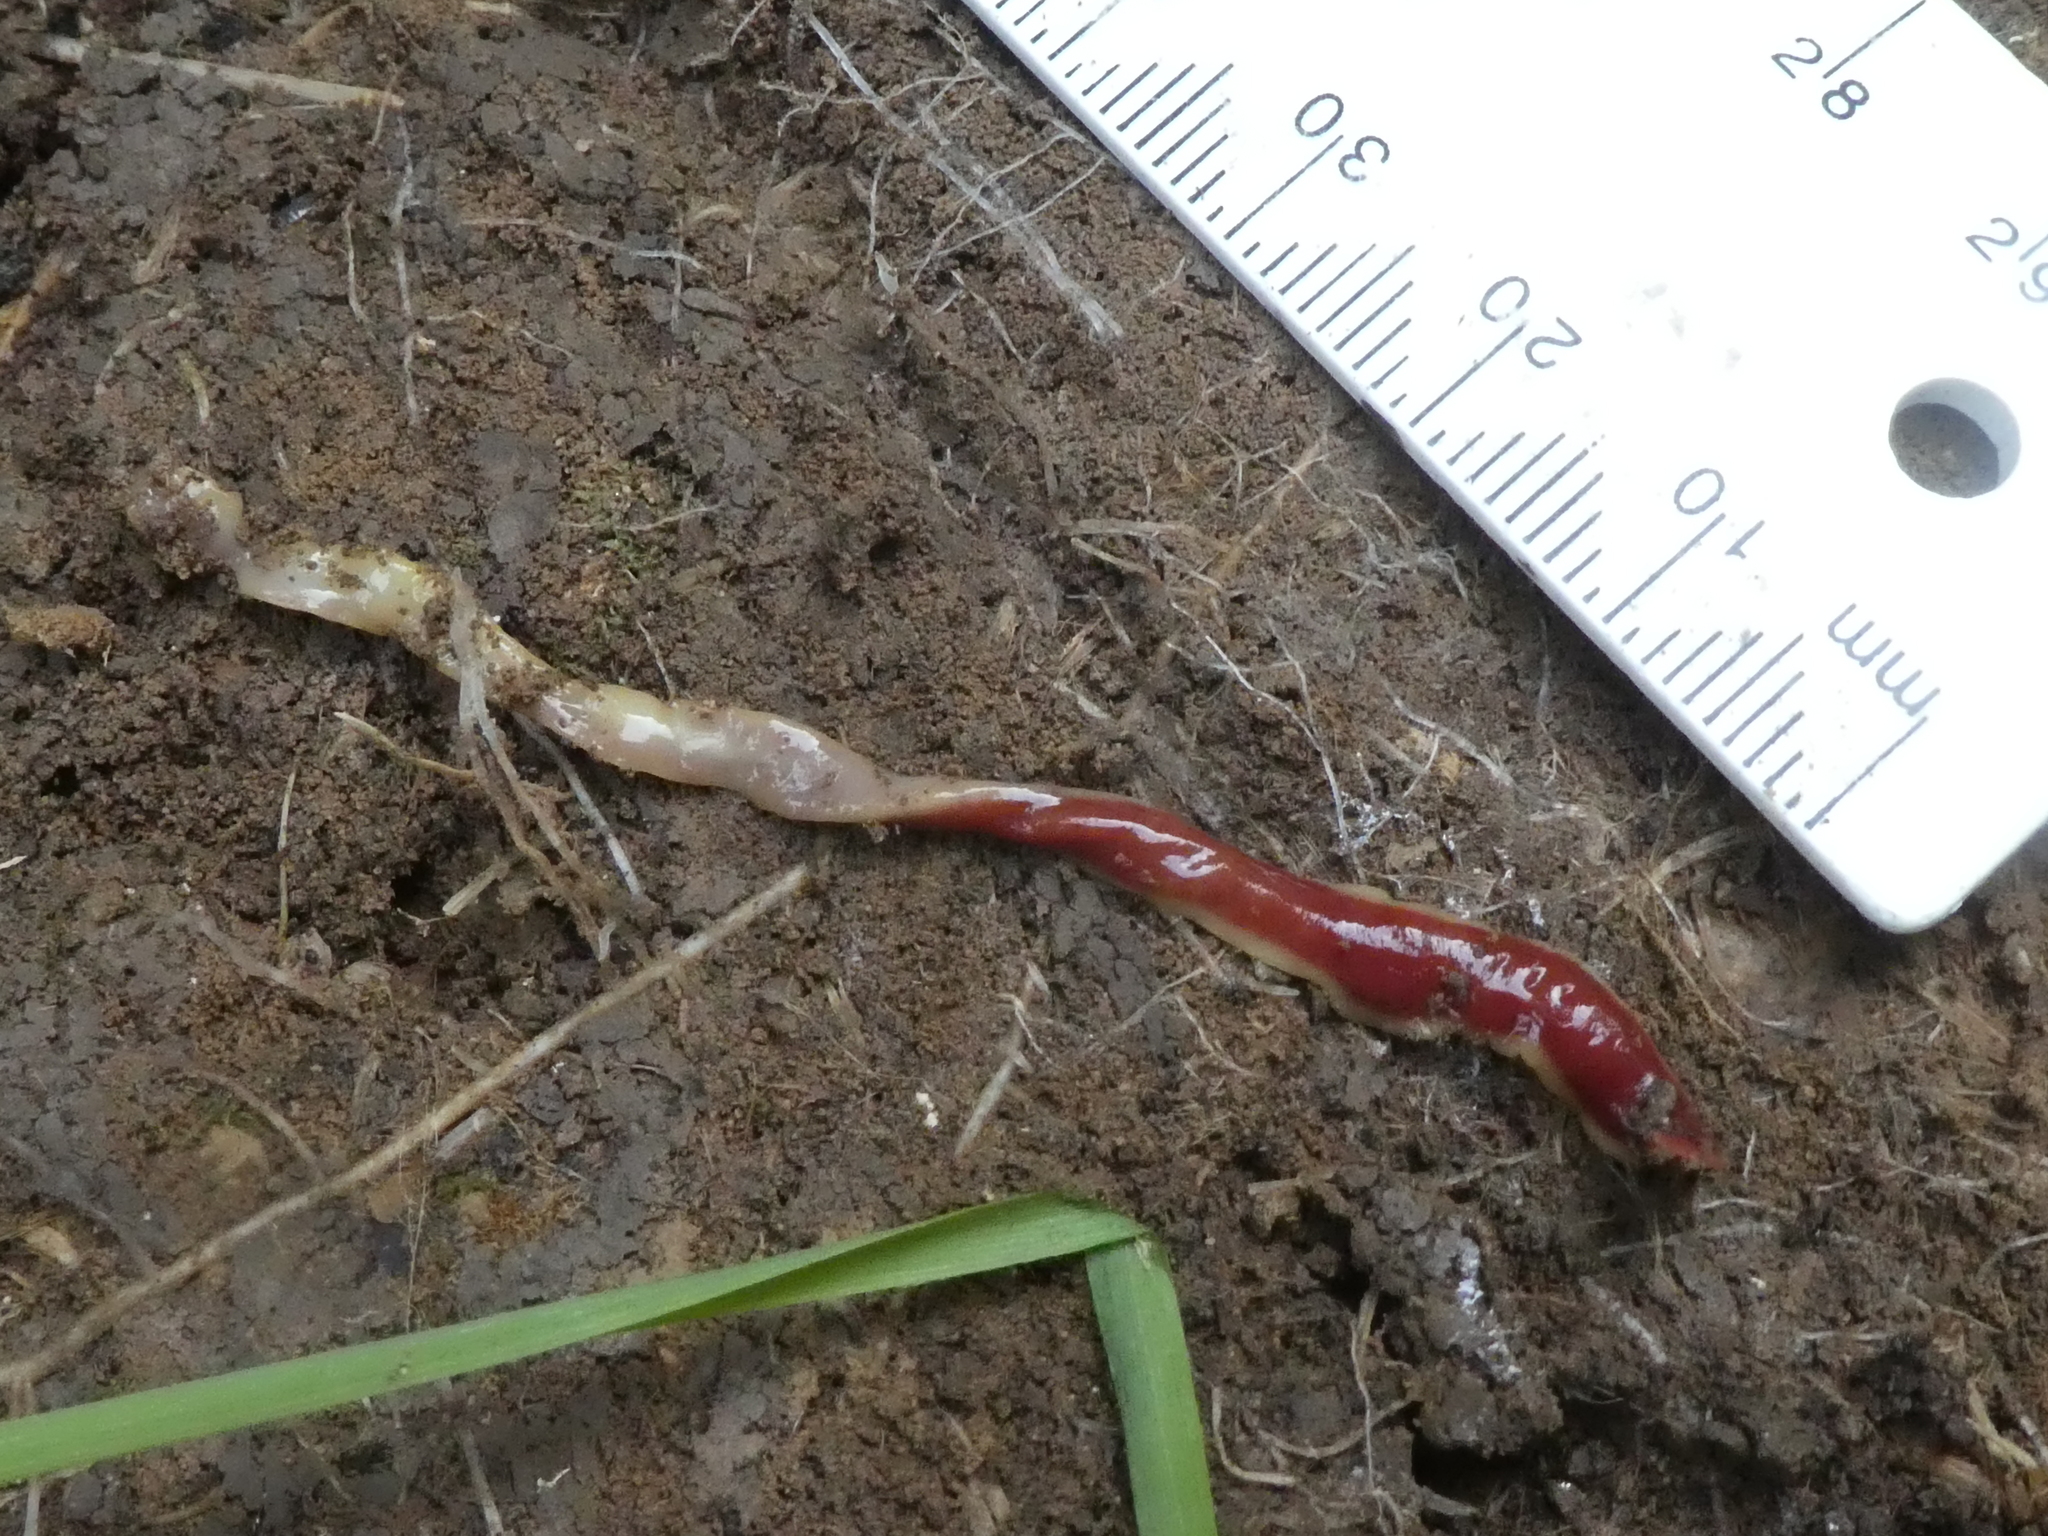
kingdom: Animalia
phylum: Platyhelminthes
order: Tricladida
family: Geoplanidae
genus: Arthurdendyus
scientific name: Arthurdendyus testaceus
